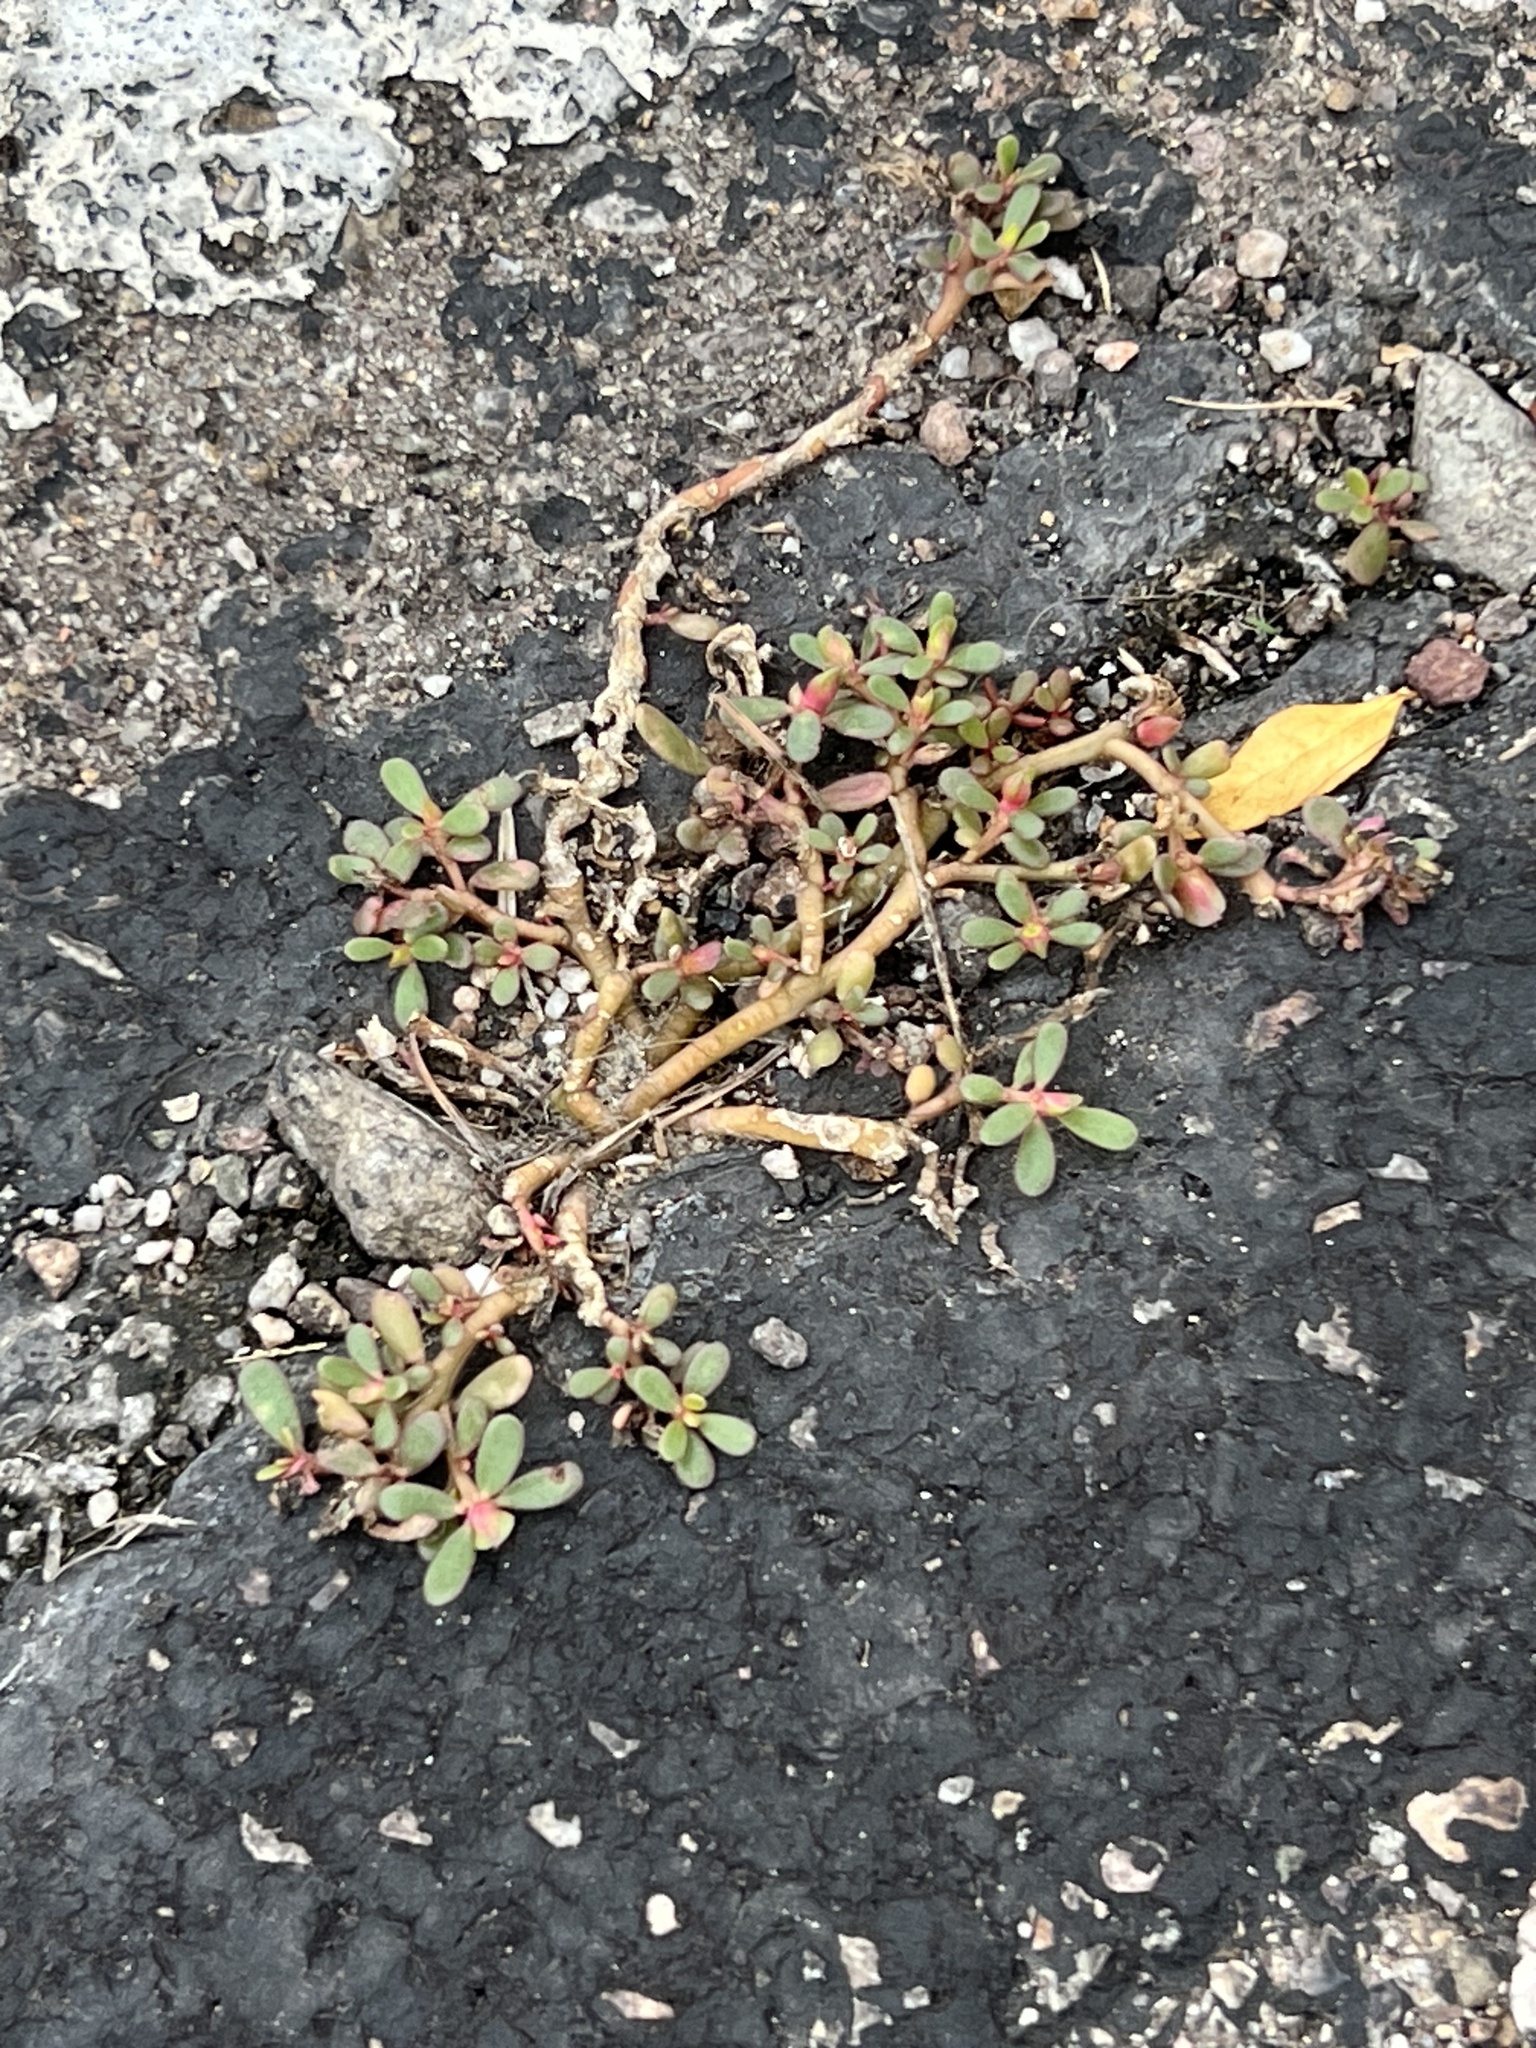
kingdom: Plantae
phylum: Tracheophyta
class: Magnoliopsida
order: Caryophyllales
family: Portulacaceae
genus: Portulaca
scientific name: Portulaca oleracea
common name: Common purslane
